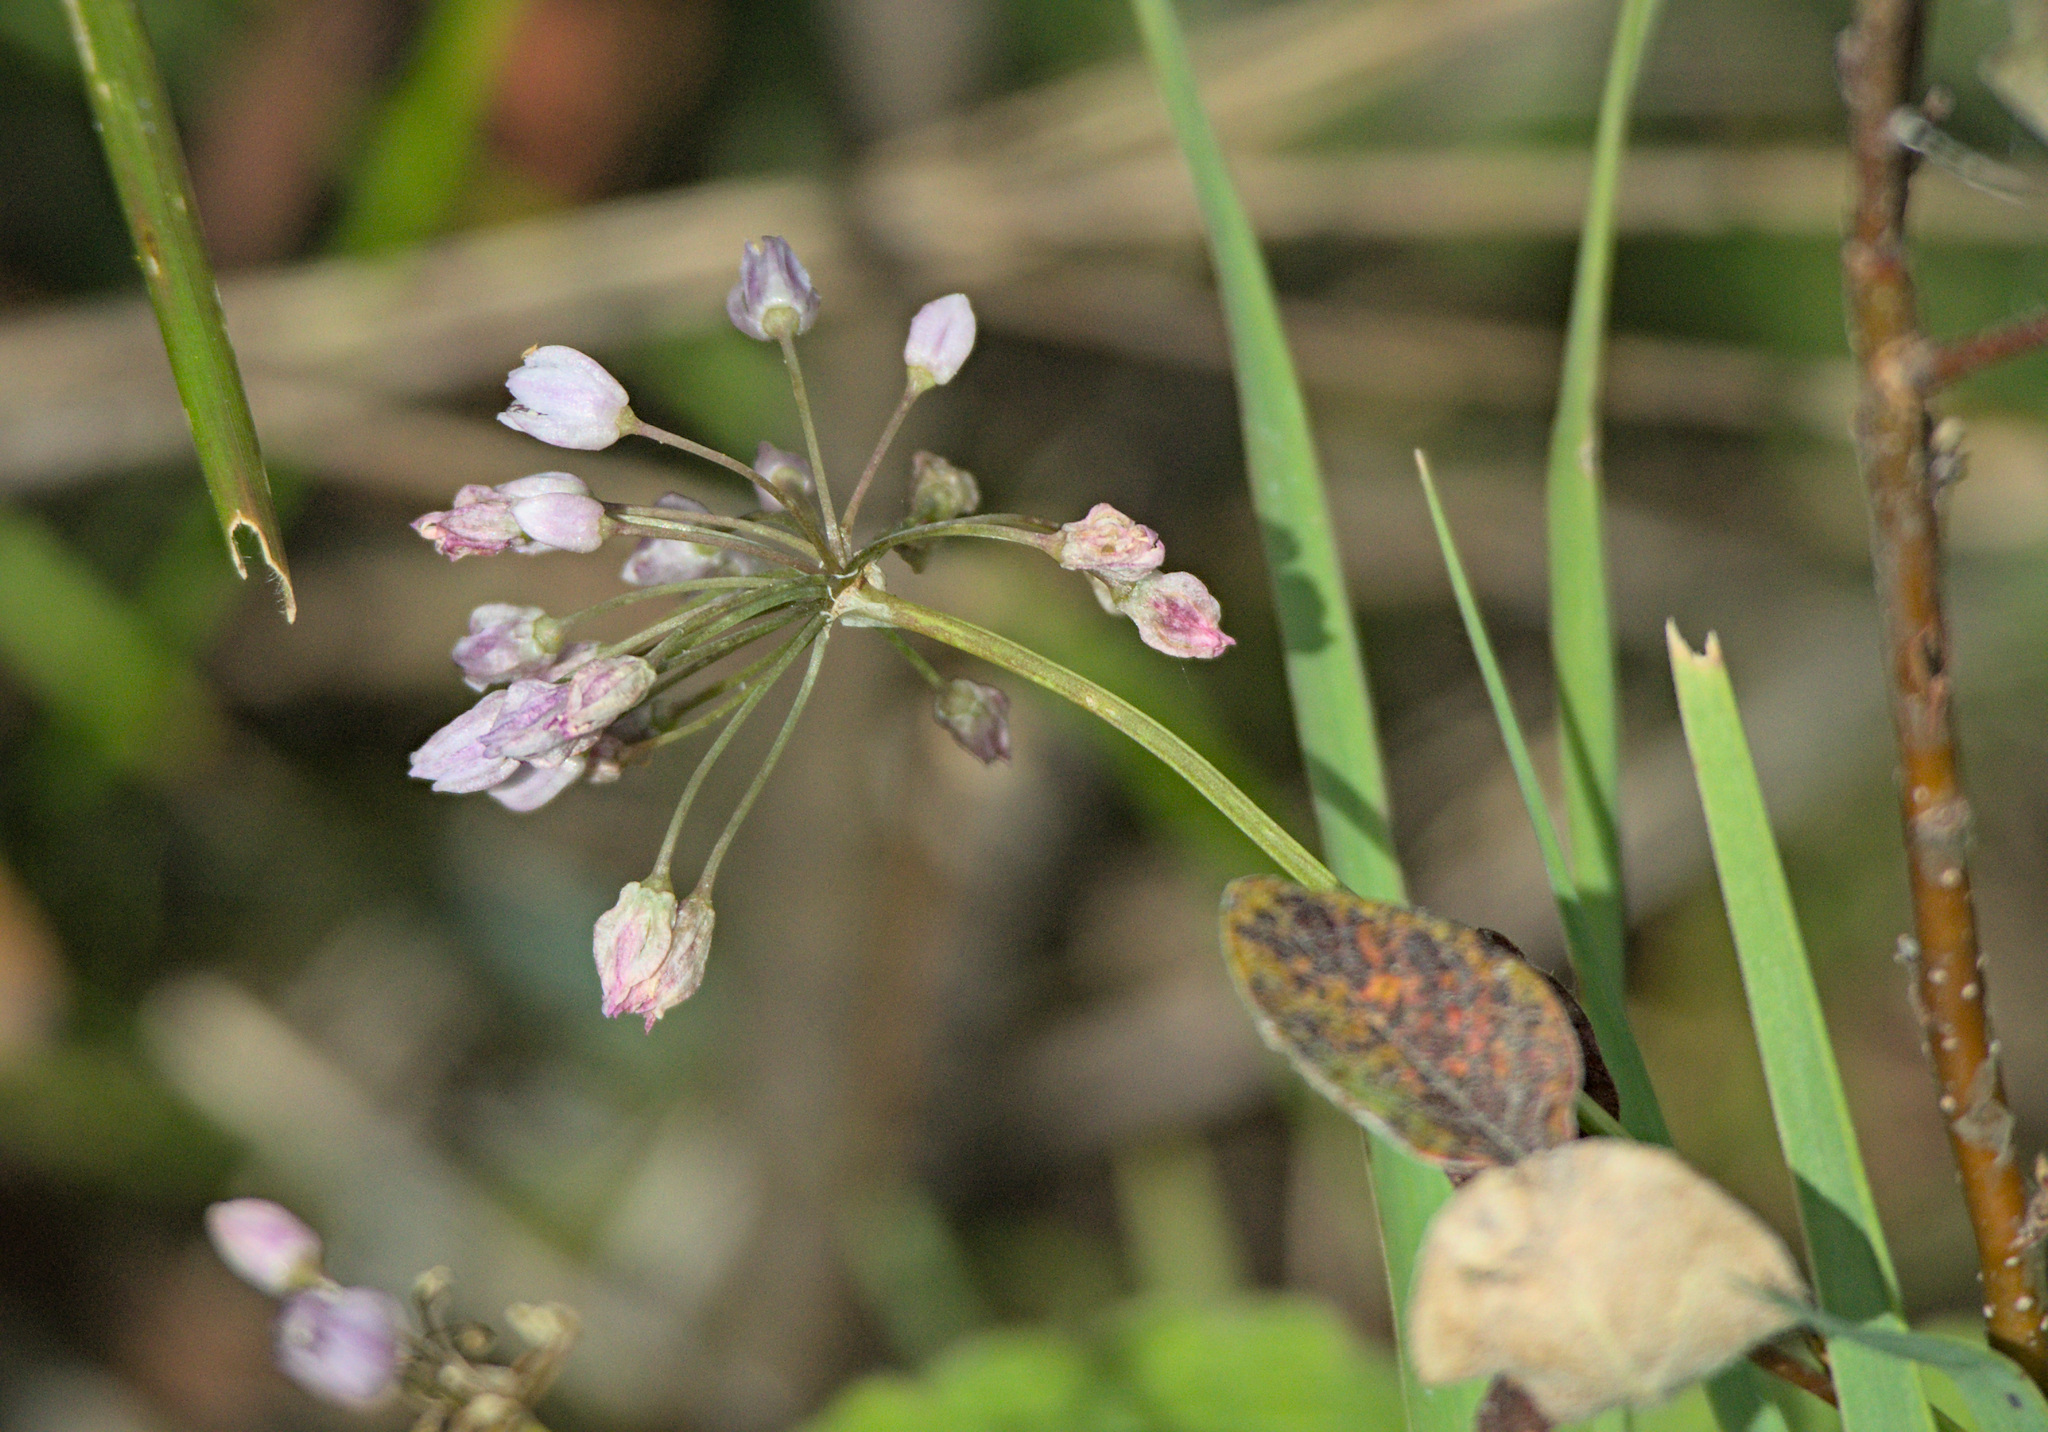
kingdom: Plantae
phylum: Tracheophyta
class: Liliopsida
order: Asparagales
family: Amaryllidaceae
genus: Allium
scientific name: Allium rubens
